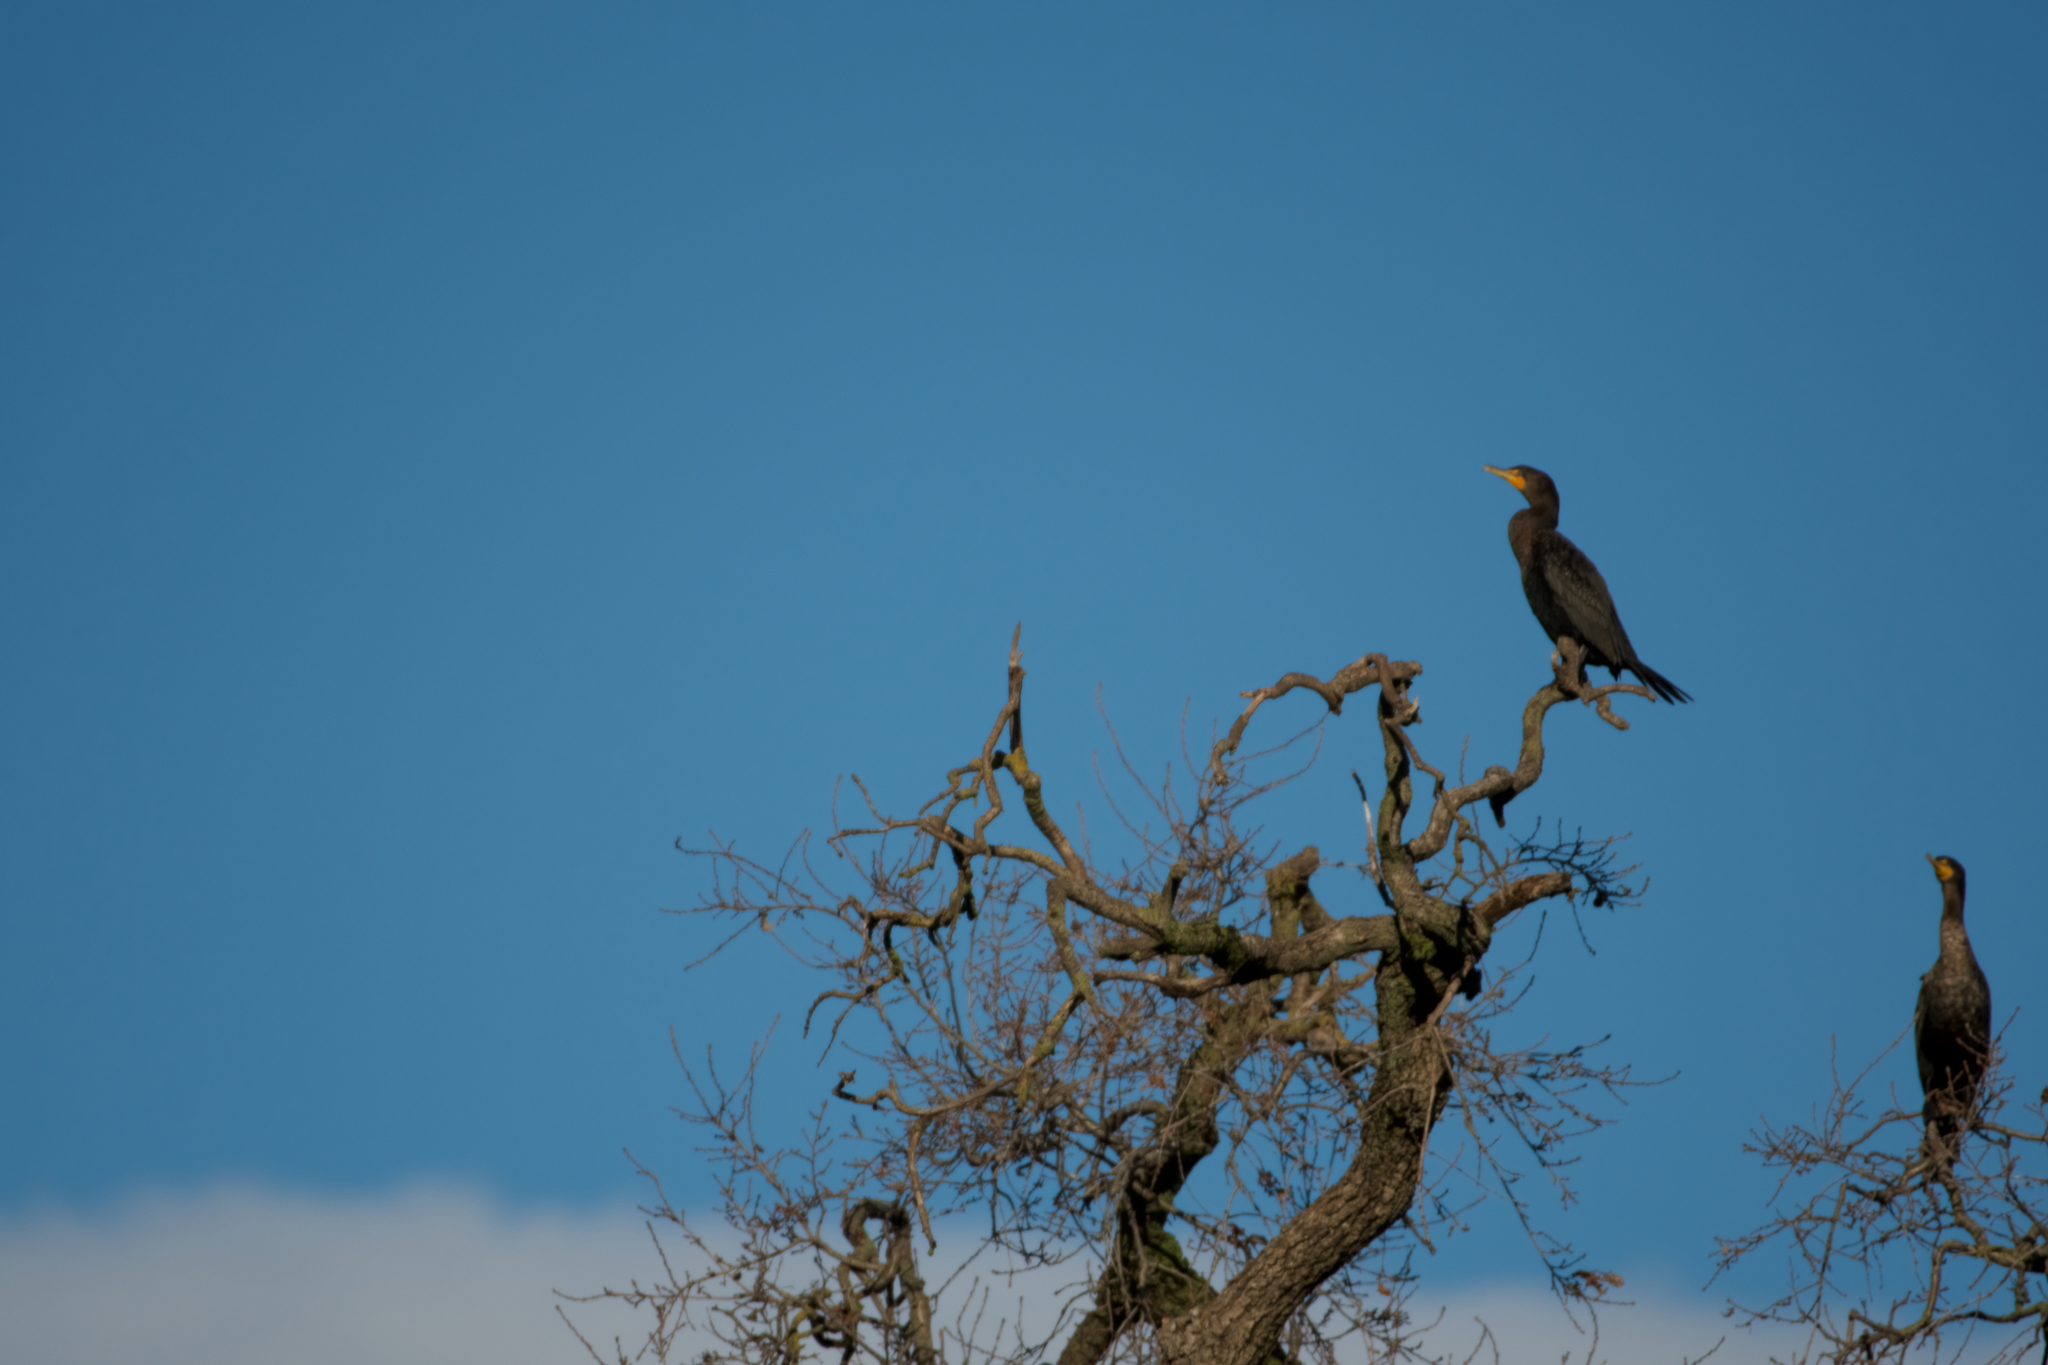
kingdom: Animalia
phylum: Chordata
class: Aves
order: Suliformes
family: Phalacrocoracidae
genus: Phalacrocorax
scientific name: Phalacrocorax auritus
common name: Double-crested cormorant
